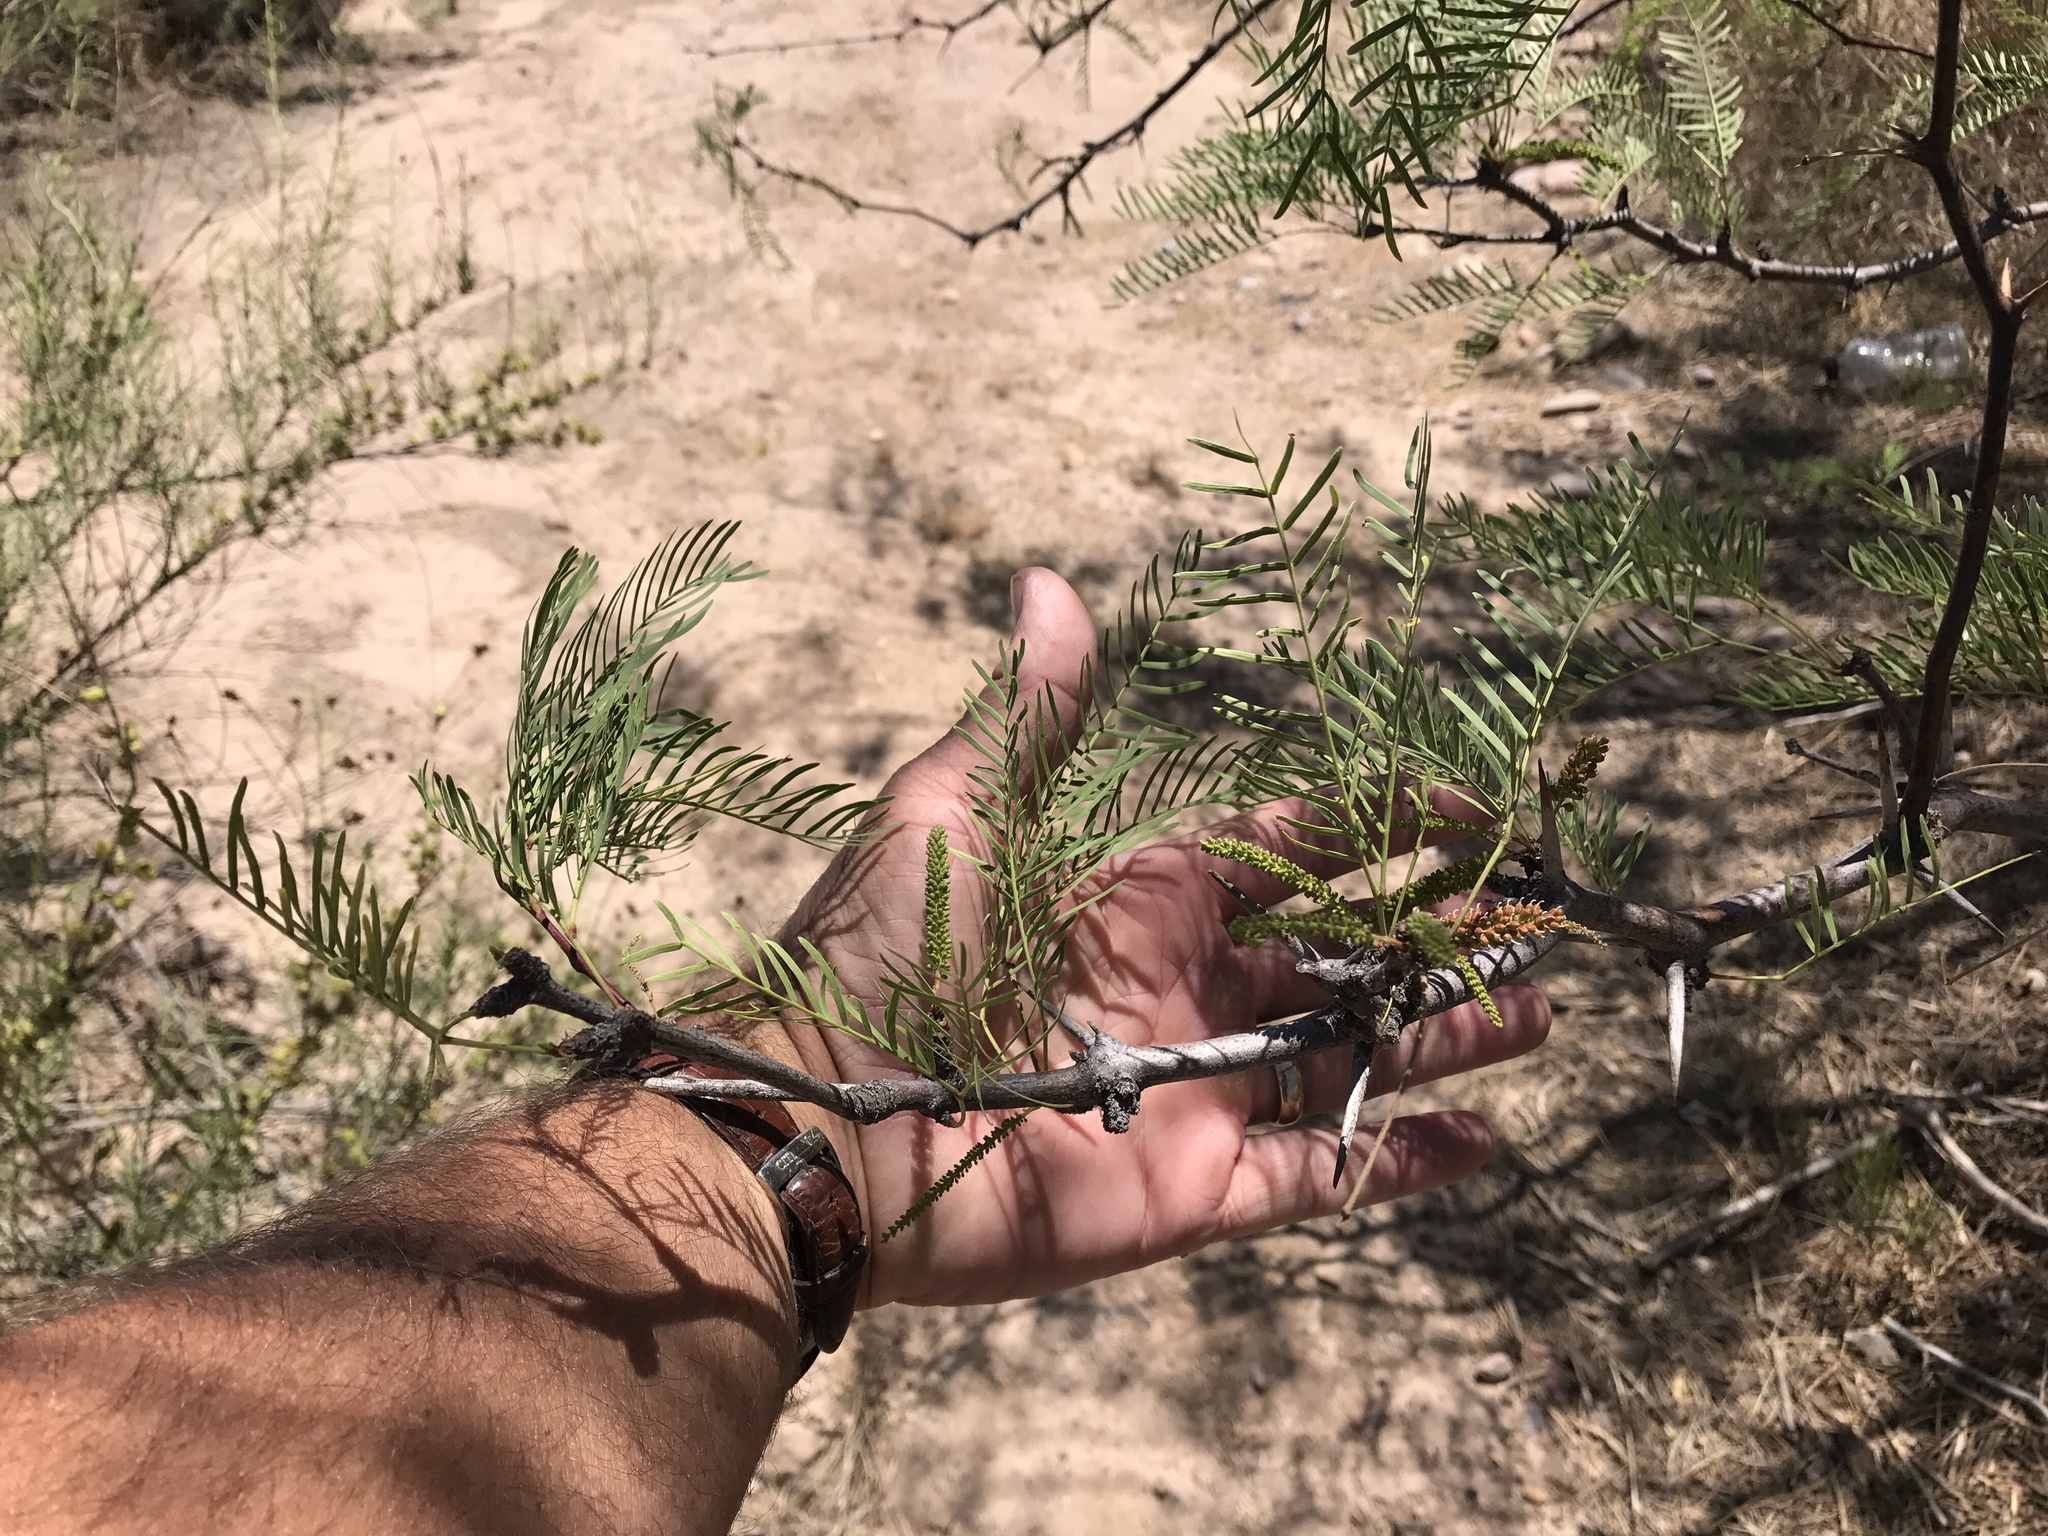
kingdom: Plantae
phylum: Tracheophyta
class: Magnoliopsida
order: Fabales
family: Fabaceae
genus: Prosopis
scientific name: Prosopis glandulosa
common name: Honey mesquite
